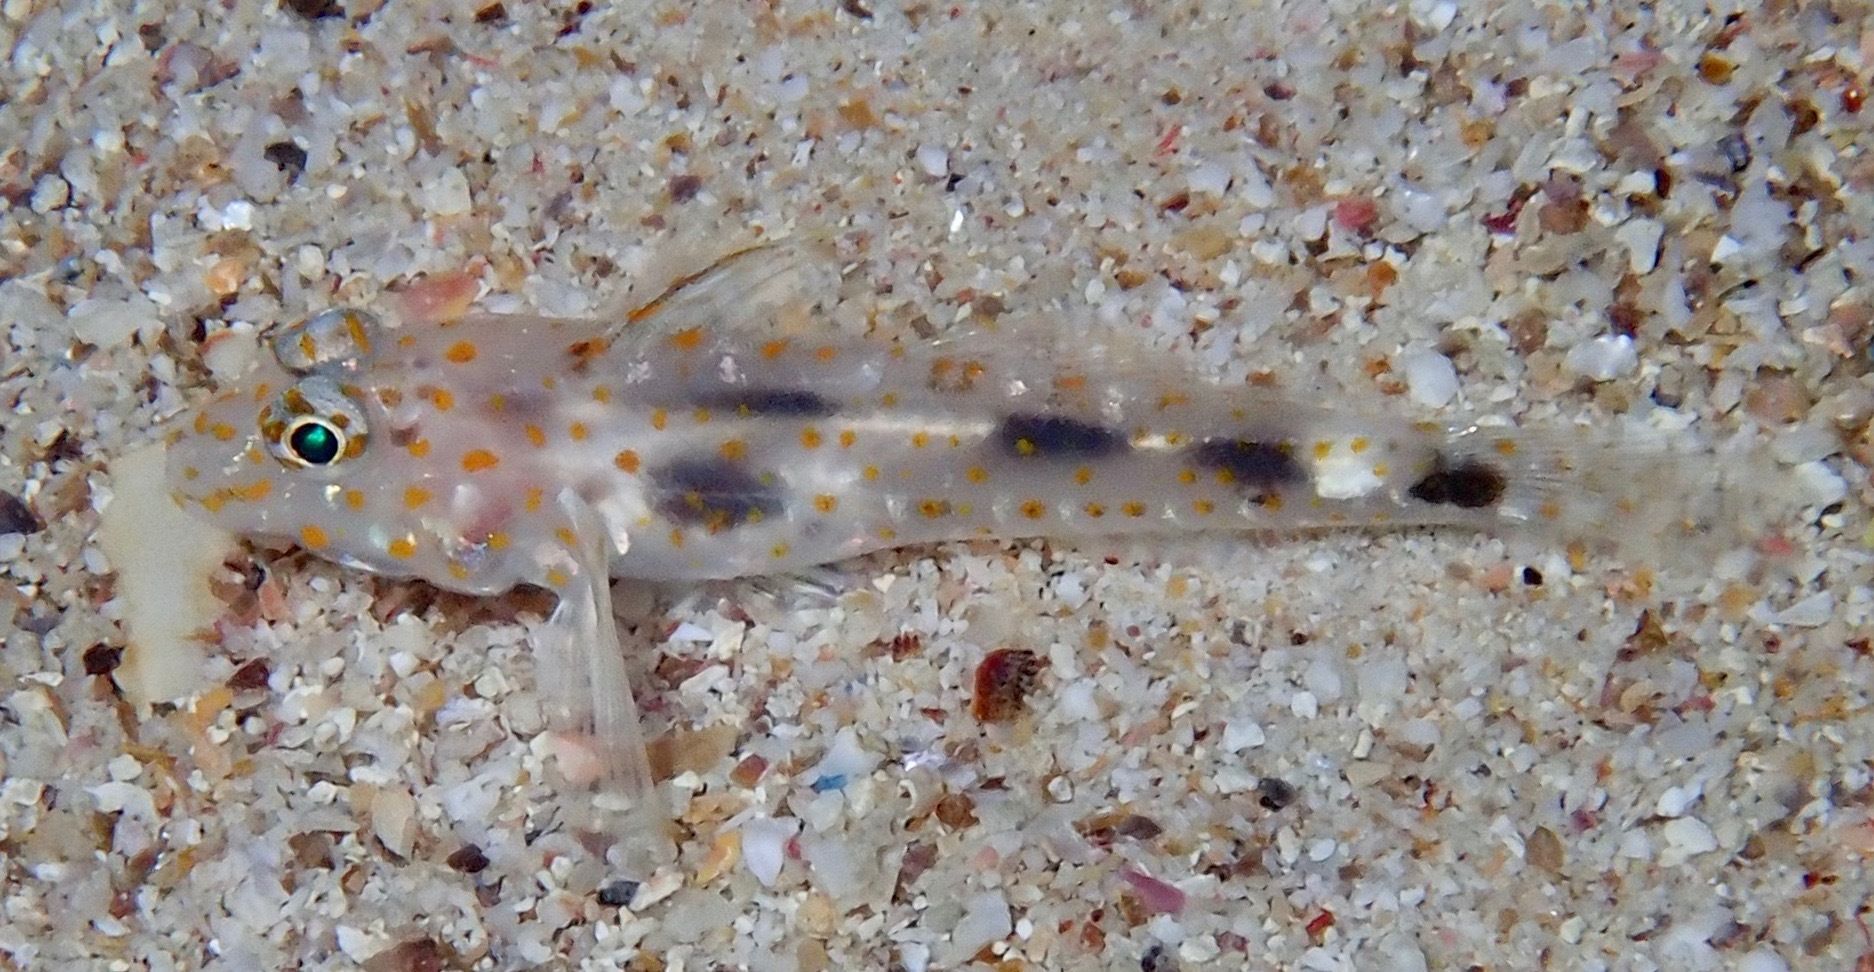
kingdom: Animalia
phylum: Chordata
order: Perciformes
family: Gobiidae
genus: Fusigobius
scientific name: Fusigobius inframaculatus
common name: Blotched goby
